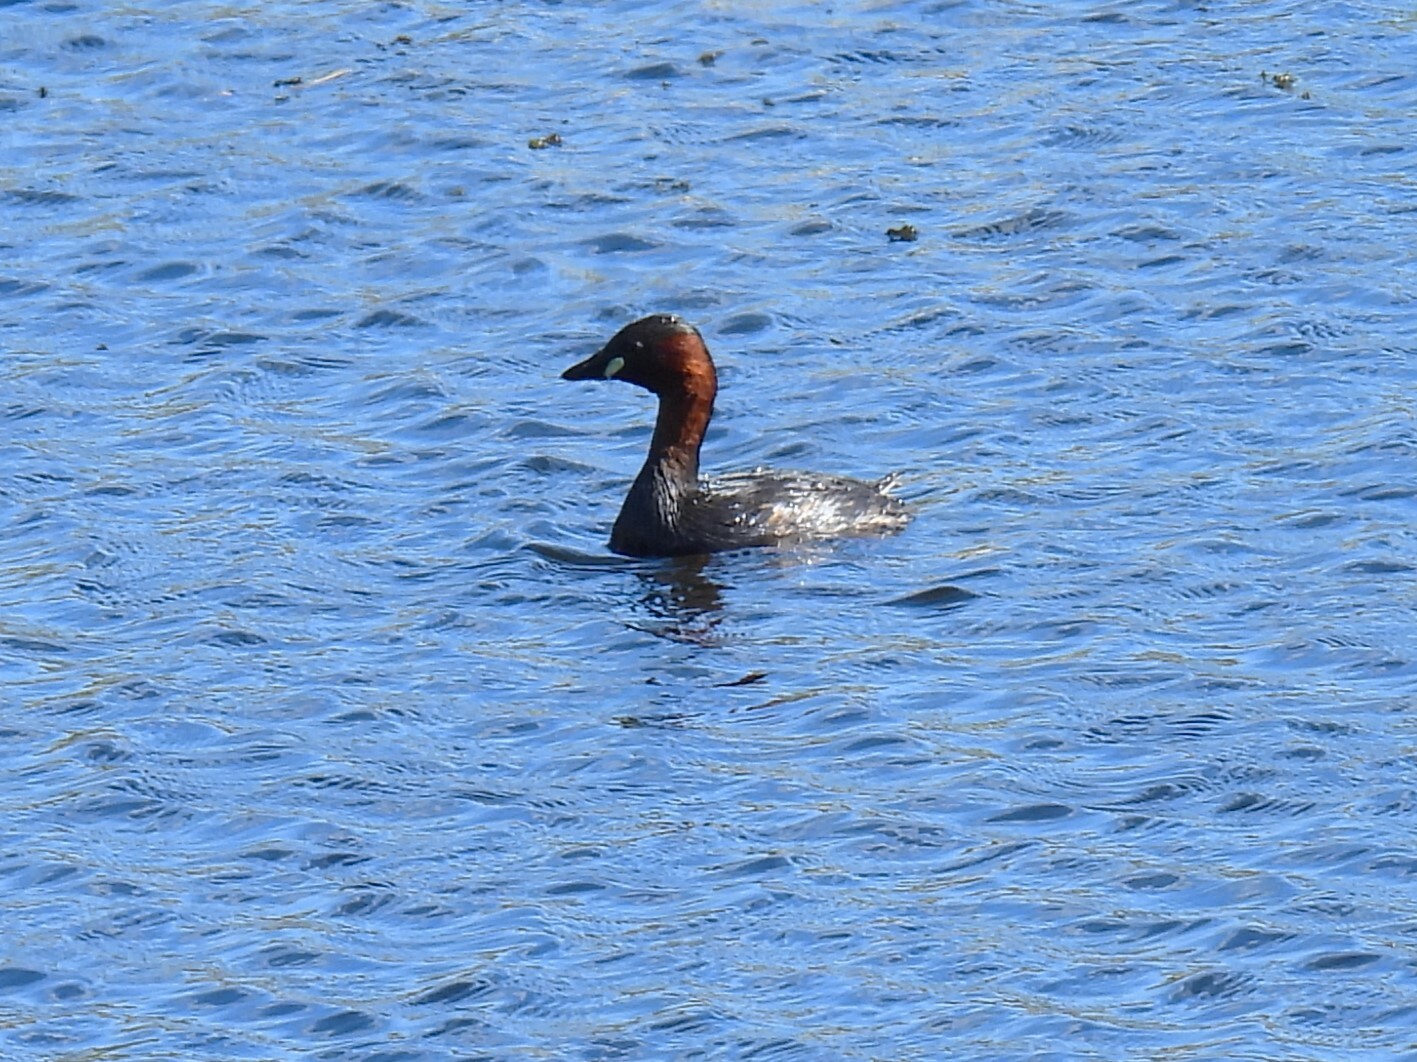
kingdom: Animalia
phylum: Chordata
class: Aves
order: Podicipediformes
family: Podicipedidae
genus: Tachybaptus
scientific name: Tachybaptus ruficollis
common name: Little grebe
